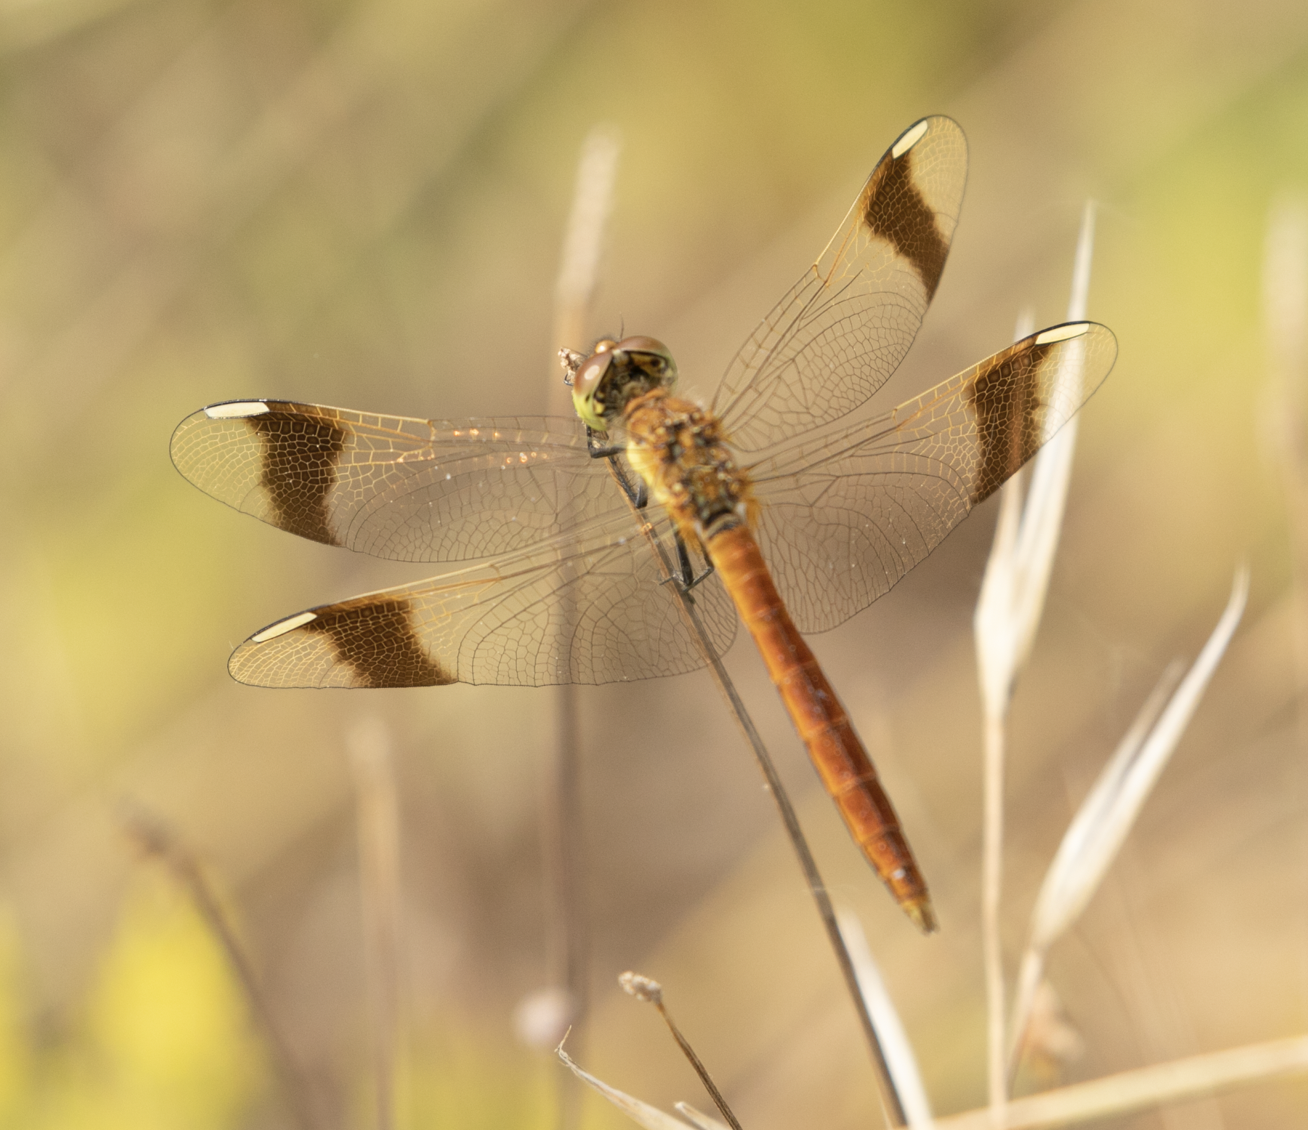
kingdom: Animalia
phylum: Arthropoda
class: Insecta
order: Odonata
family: Libellulidae
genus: Sympetrum
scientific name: Sympetrum pedemontanum
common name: Banded darter
